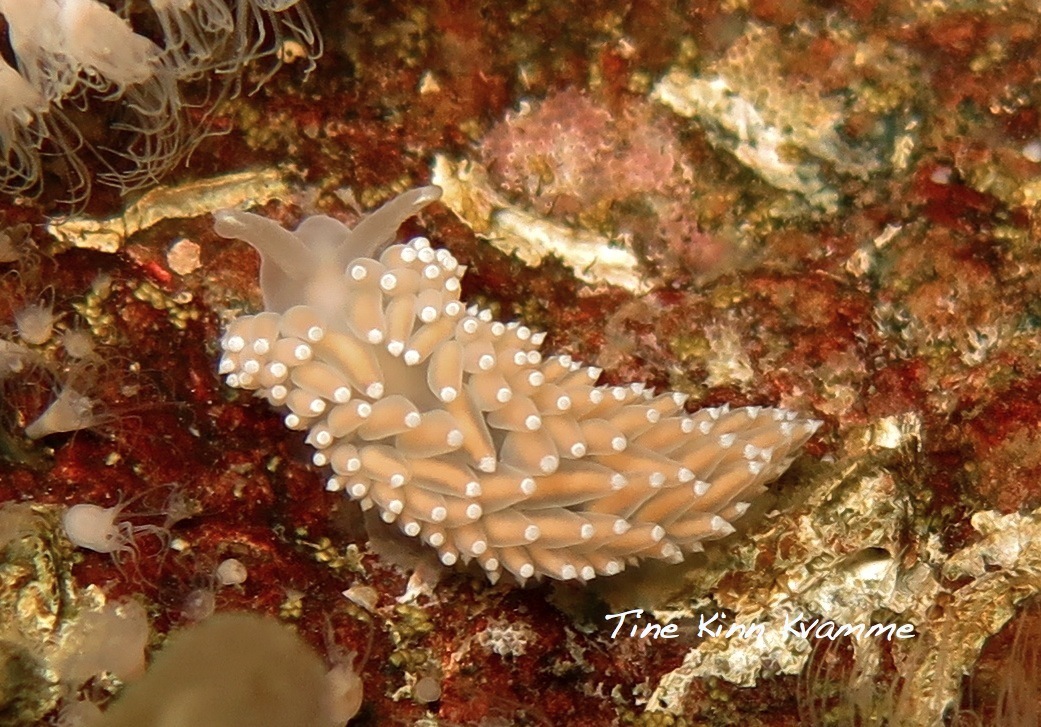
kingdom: Animalia
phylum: Mollusca
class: Gastropoda
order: Nudibranchia
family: Coryphellidae
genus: Coryphella
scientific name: Coryphella verrucosa
